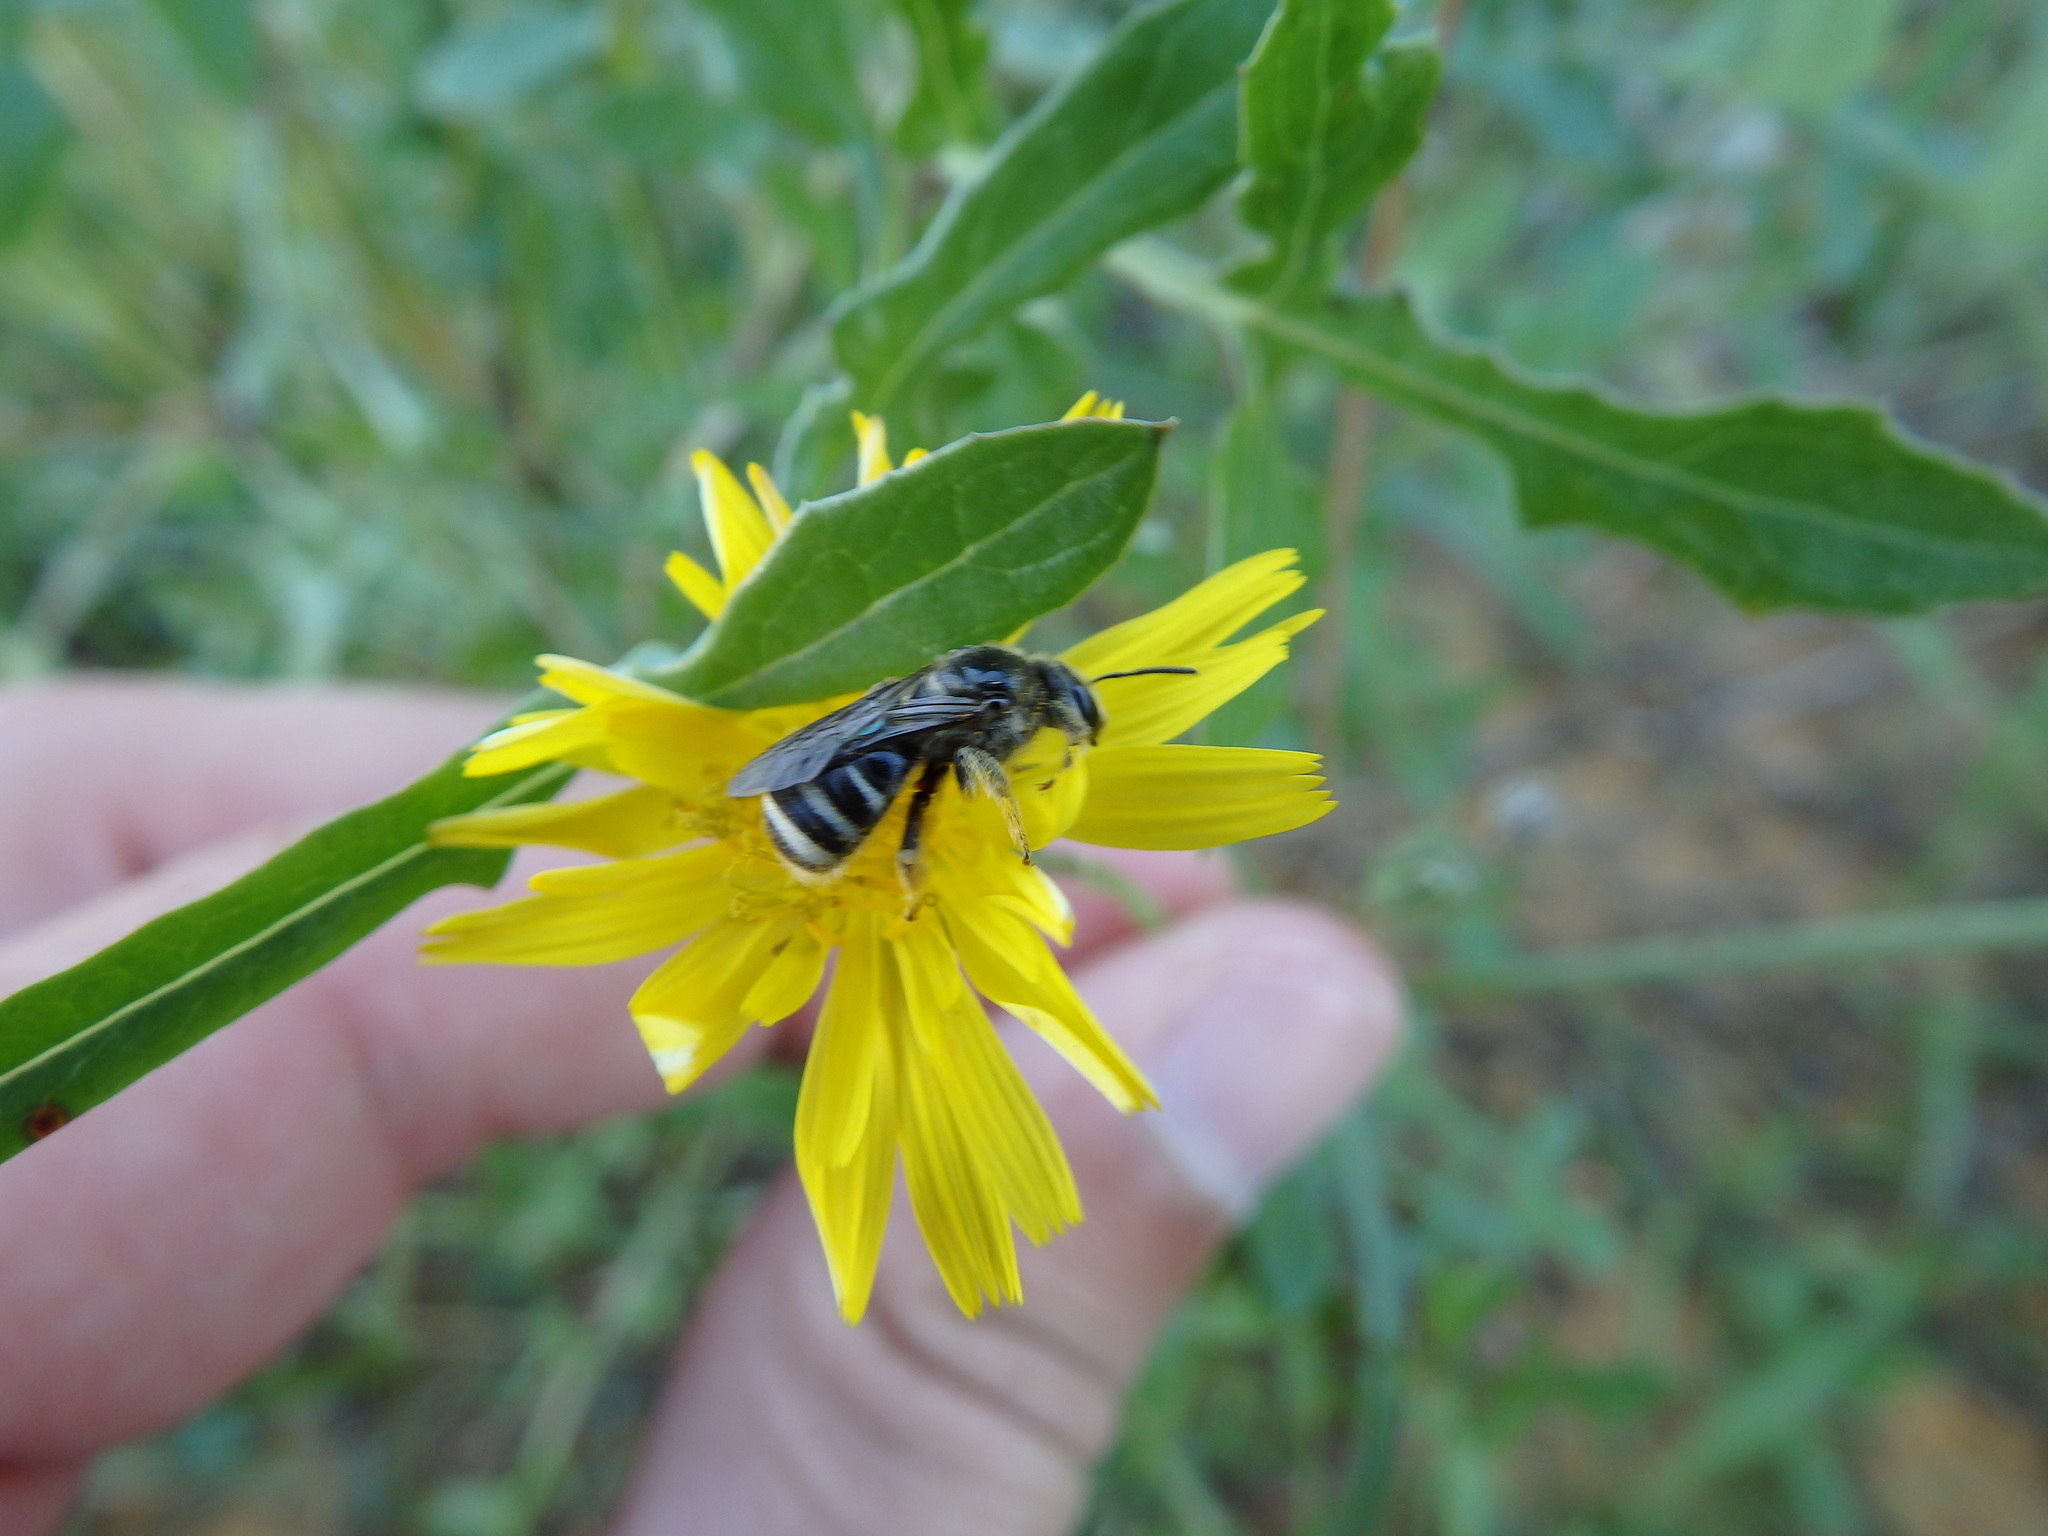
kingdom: Animalia
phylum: Arthropoda
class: Insecta
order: Hymenoptera
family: Halictidae
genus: Lasioglossum
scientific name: Lasioglossum
